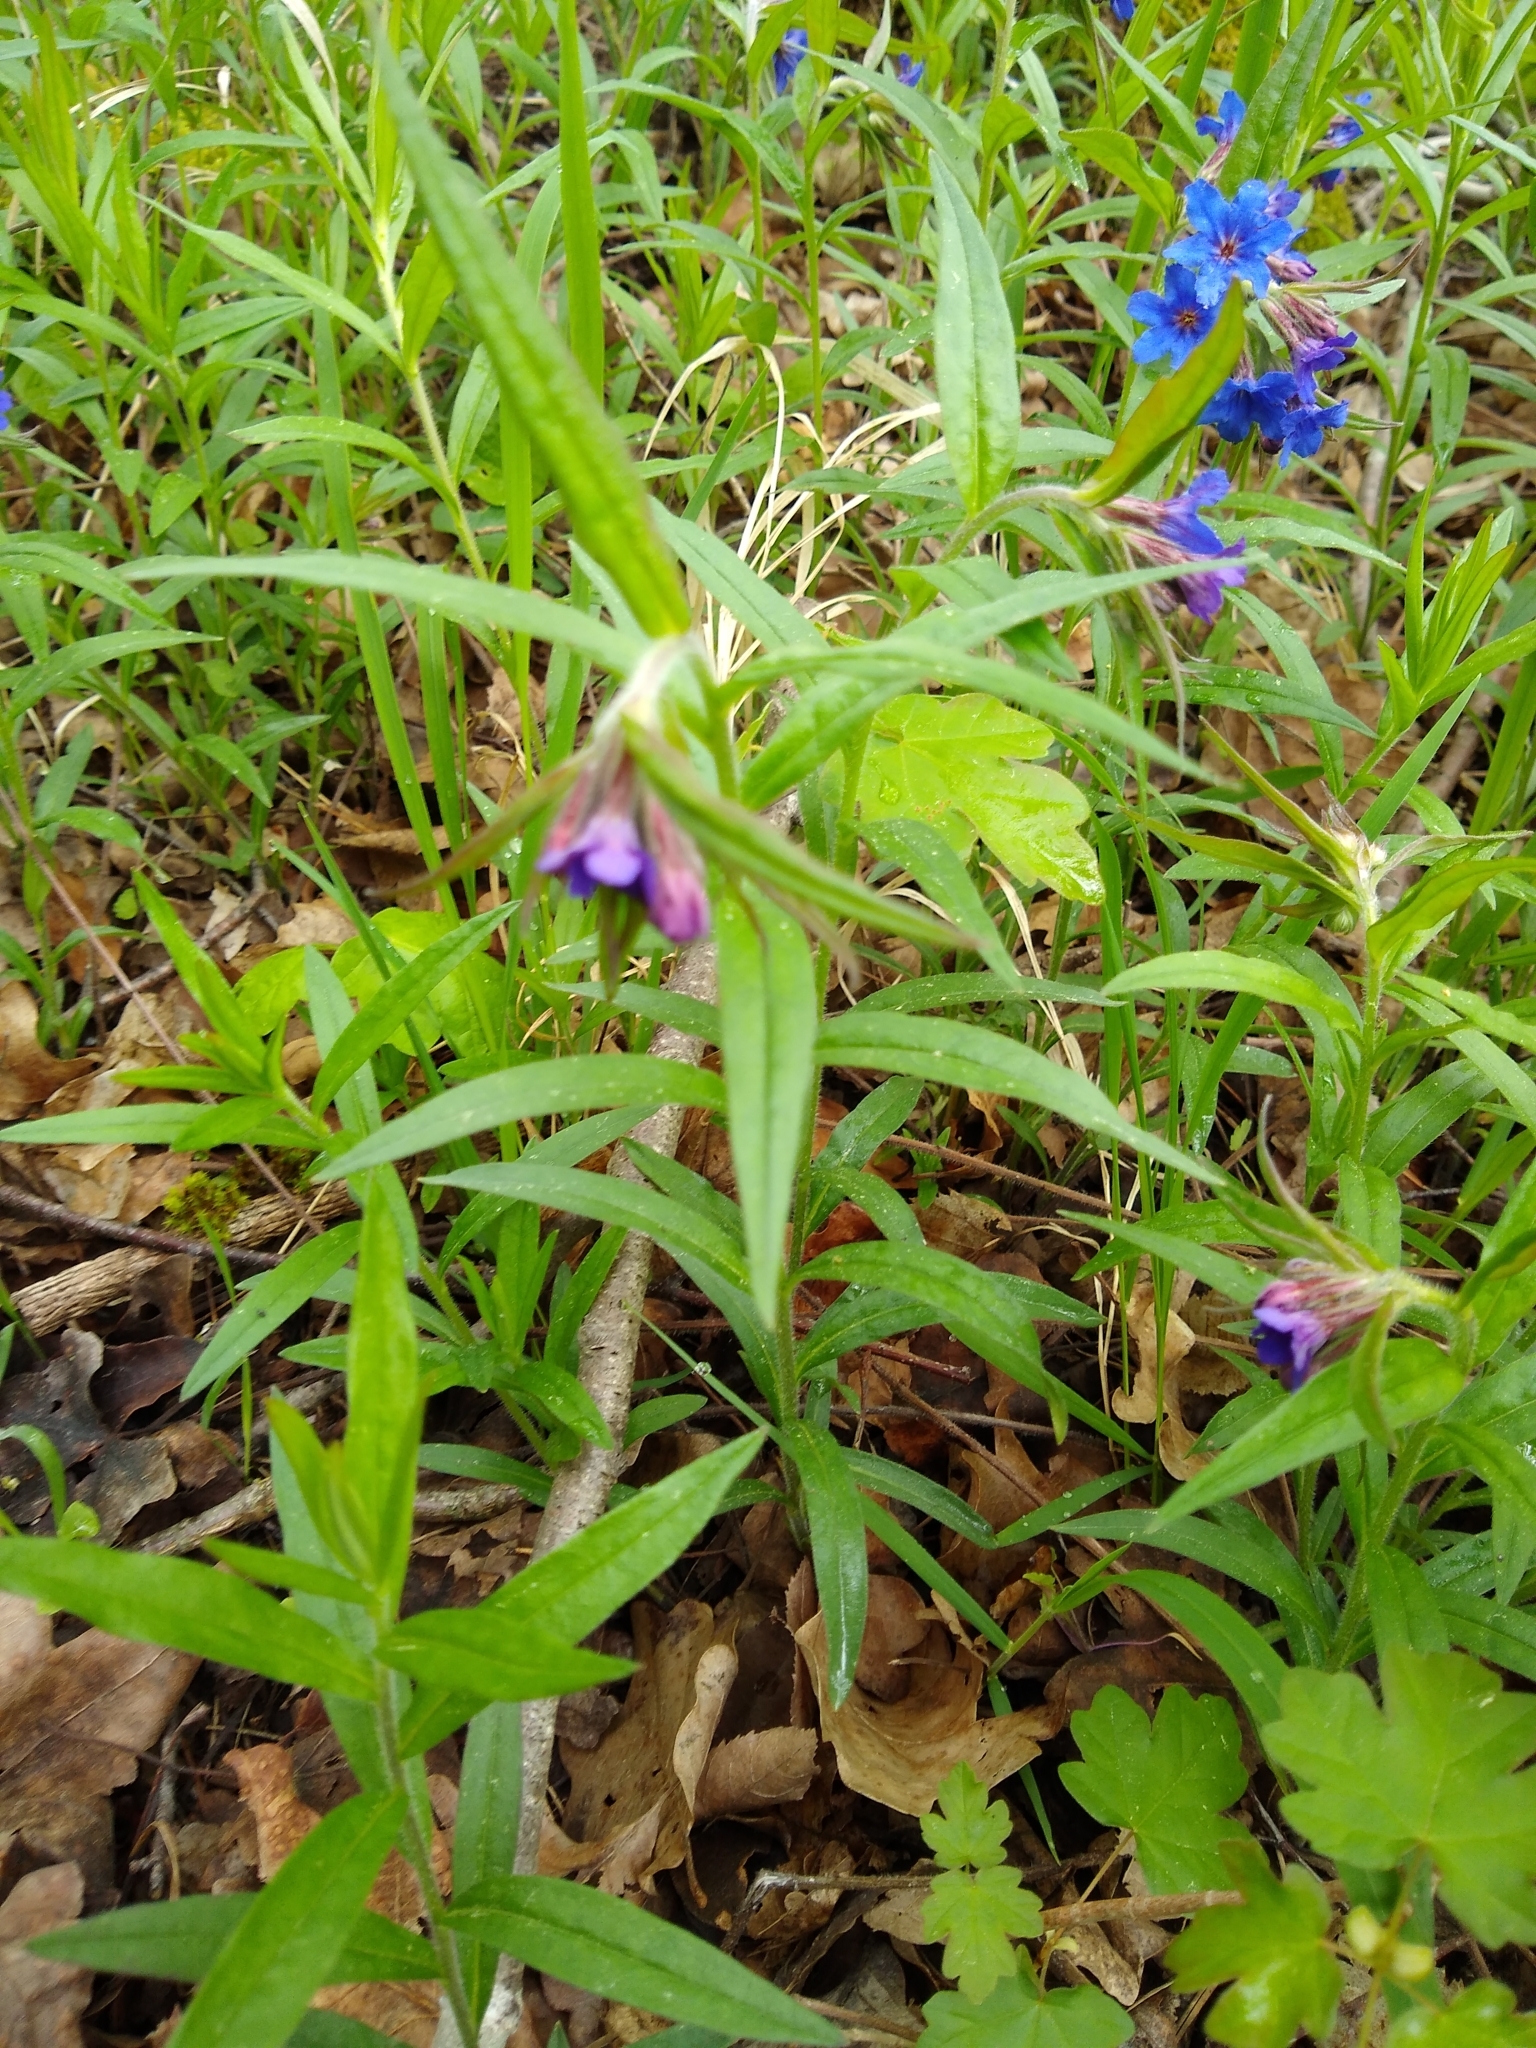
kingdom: Plantae
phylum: Tracheophyta
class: Magnoliopsida
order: Boraginales
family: Boraginaceae
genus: Aegonychon
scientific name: Aegonychon purpurocaeruleum
